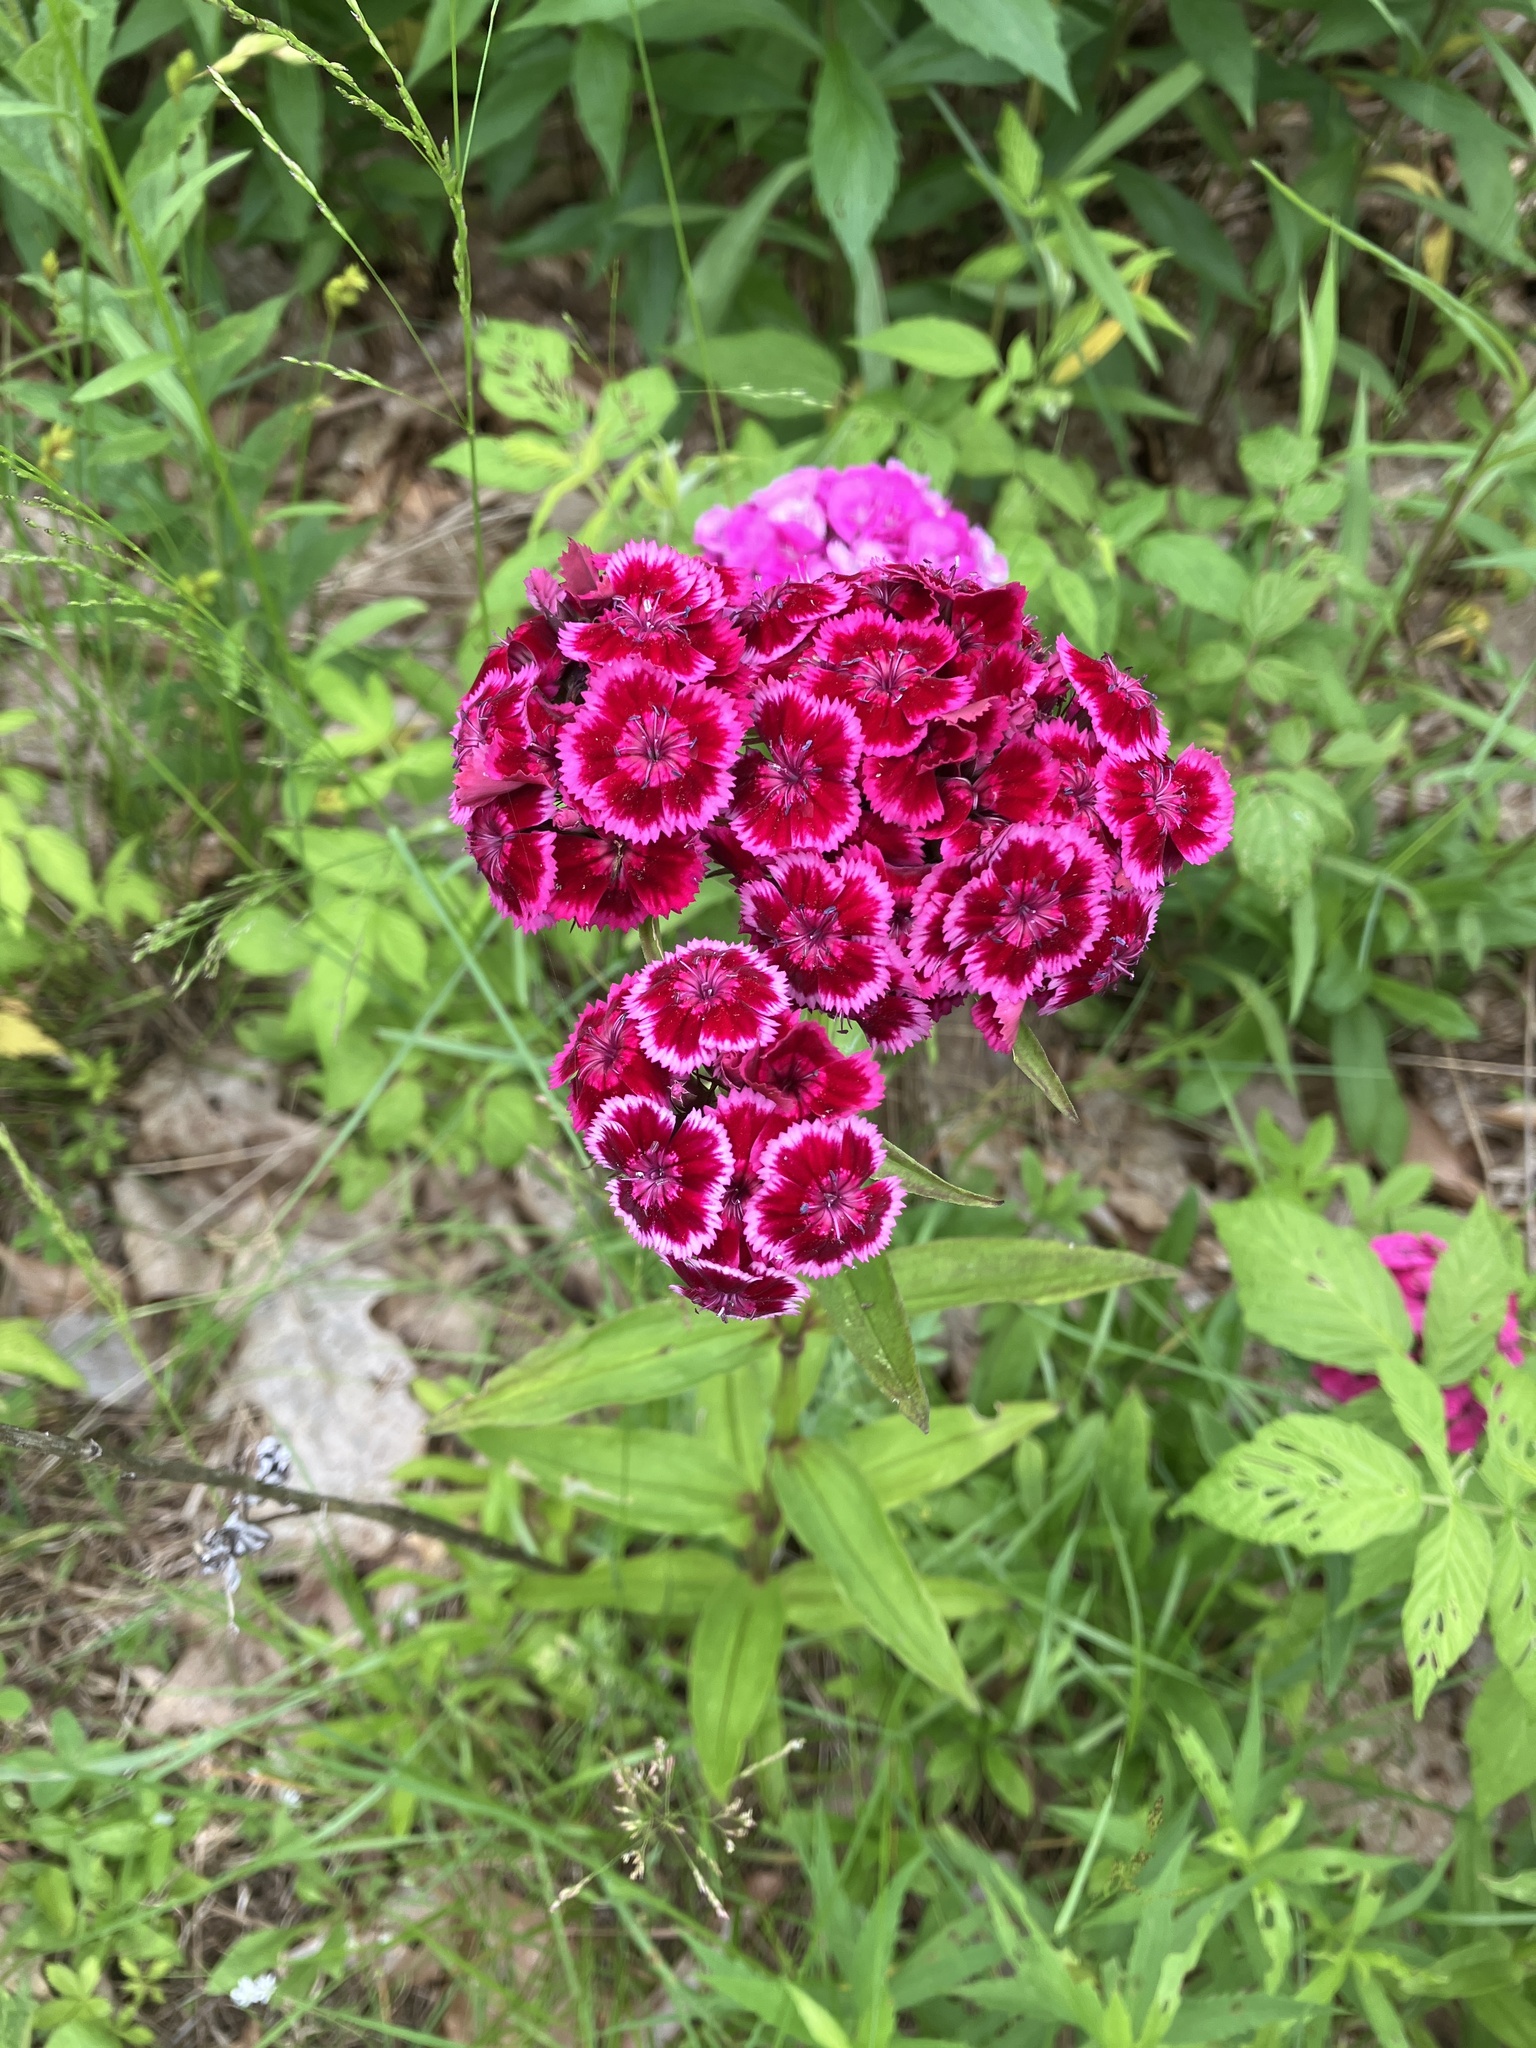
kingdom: Plantae
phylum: Tracheophyta
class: Magnoliopsida
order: Caryophyllales
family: Caryophyllaceae
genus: Dianthus
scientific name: Dianthus barbatus
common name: Sweet-william
